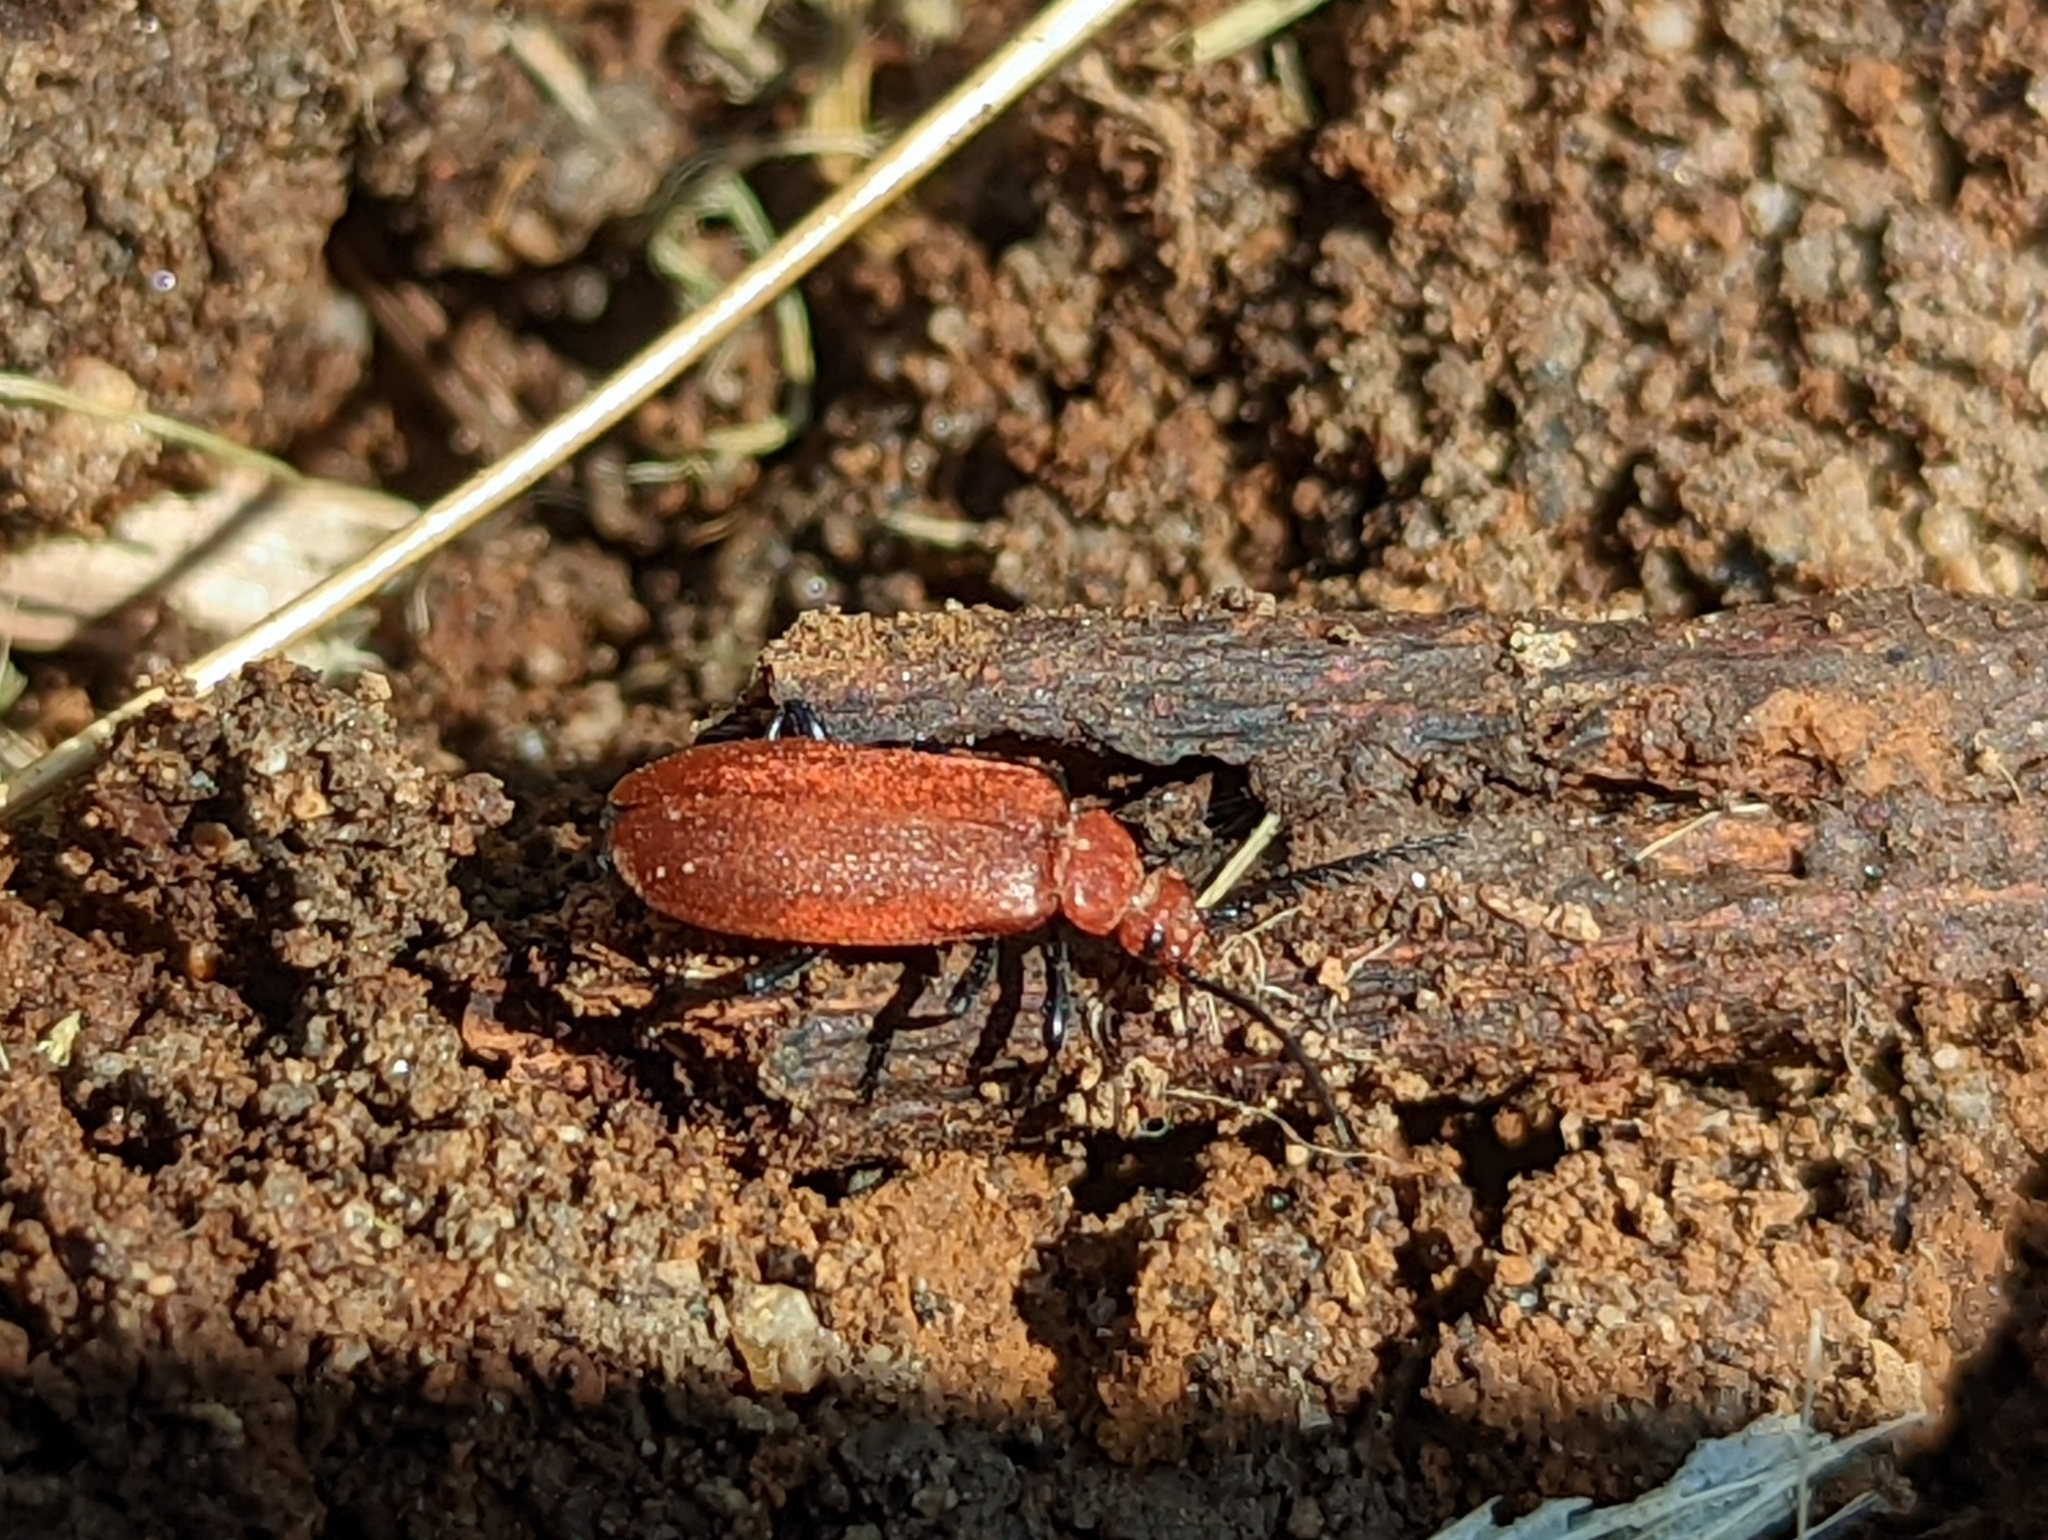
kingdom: Animalia
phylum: Arthropoda
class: Insecta
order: Coleoptera
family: Pyrochroidae
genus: Pyrochroa
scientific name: Pyrochroa serraticornis
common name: Red-headed cardinal beetle
